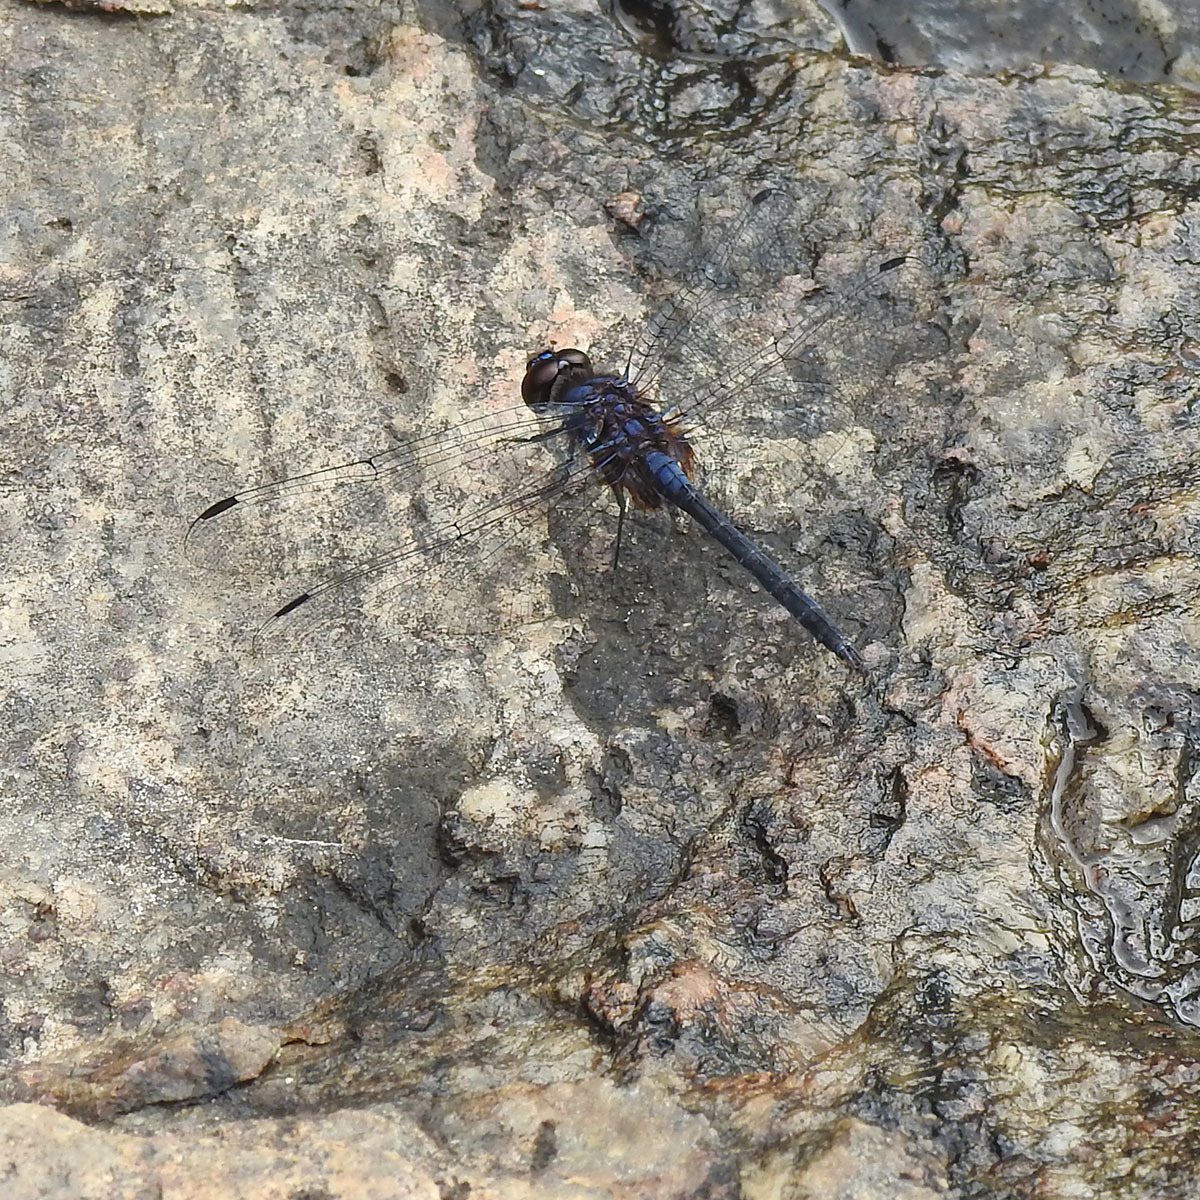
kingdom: Animalia
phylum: Arthropoda
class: Insecta
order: Odonata
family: Libellulidae
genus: Trithemis
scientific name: Trithemis festiva
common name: Indigo dropwing
